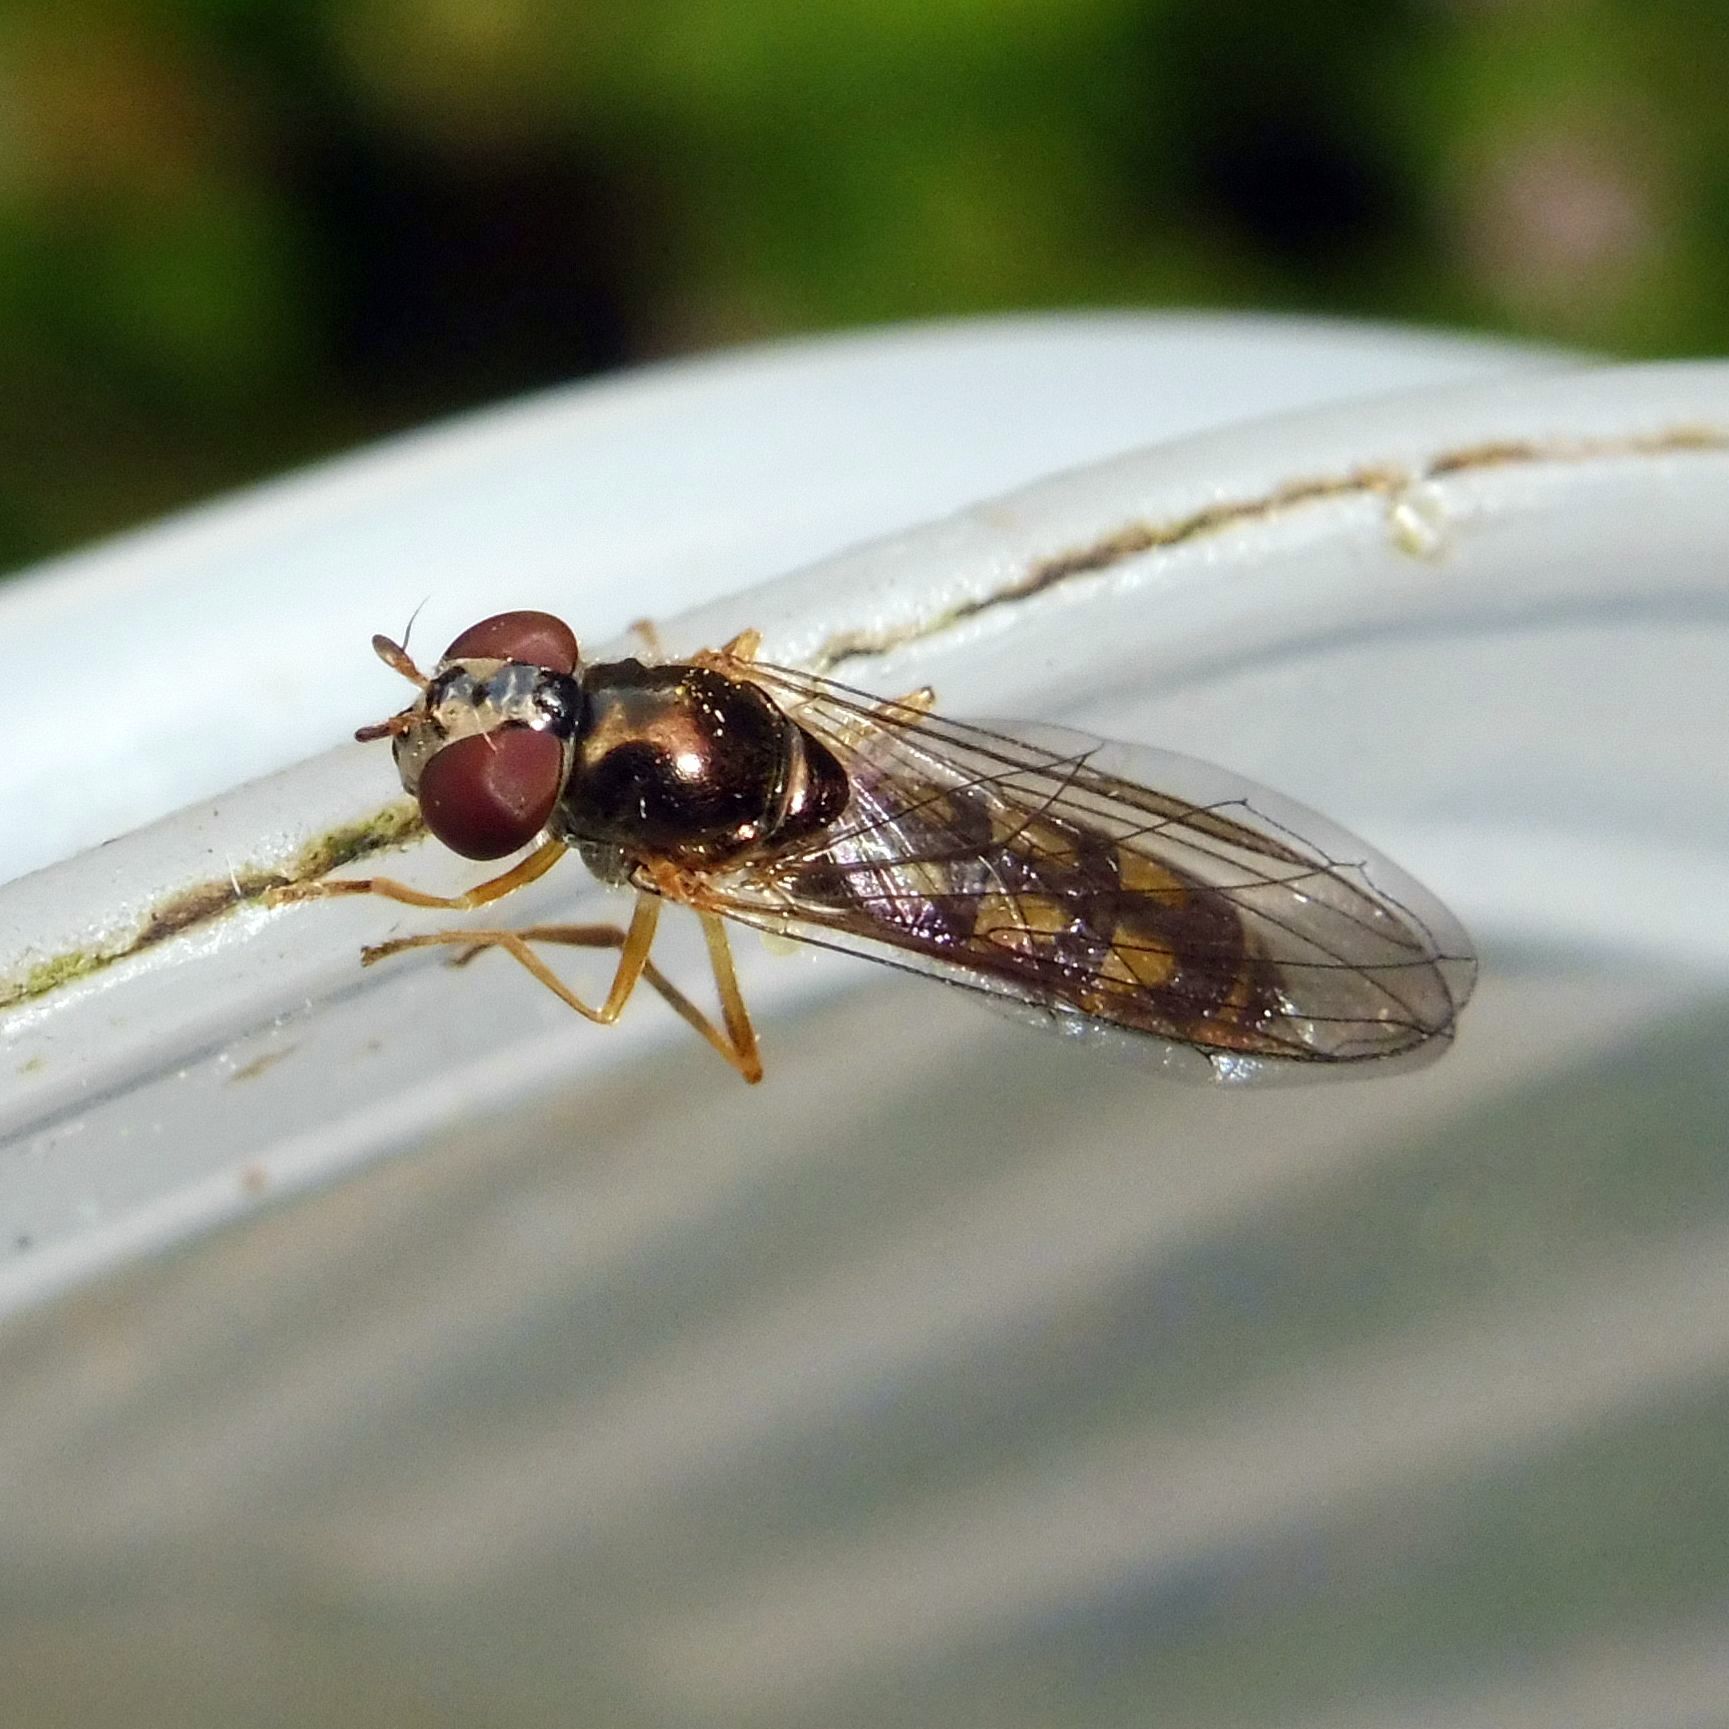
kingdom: Animalia
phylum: Arthropoda
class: Insecta
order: Diptera
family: Syrphidae
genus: Melanostoma
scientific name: Melanostoma scalare
